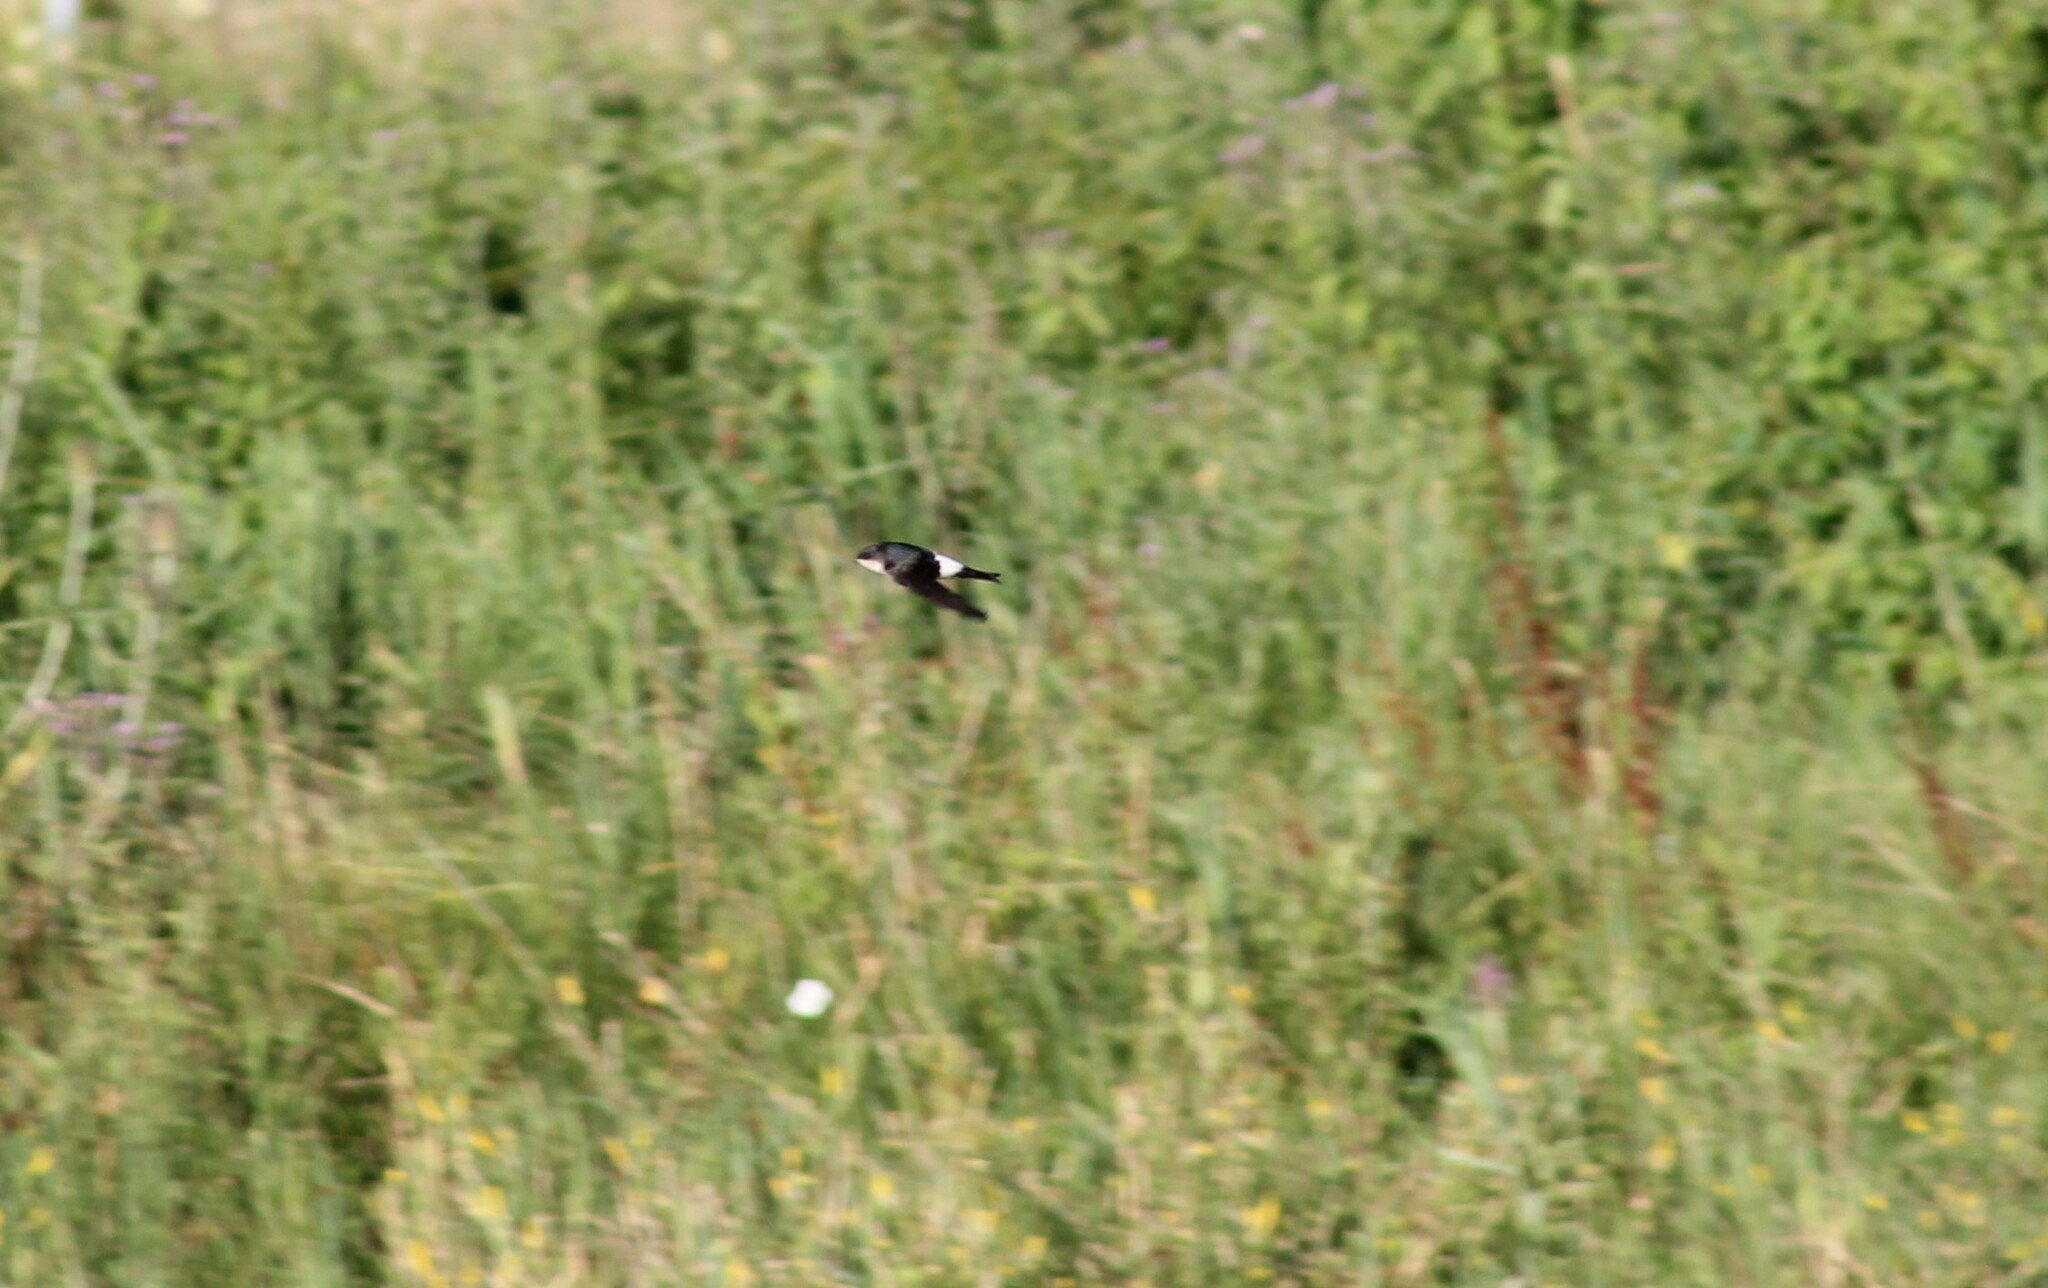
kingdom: Animalia
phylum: Chordata
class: Aves
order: Passeriformes
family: Hirundinidae
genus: Delichon
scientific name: Delichon urbicum
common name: Common house martin
